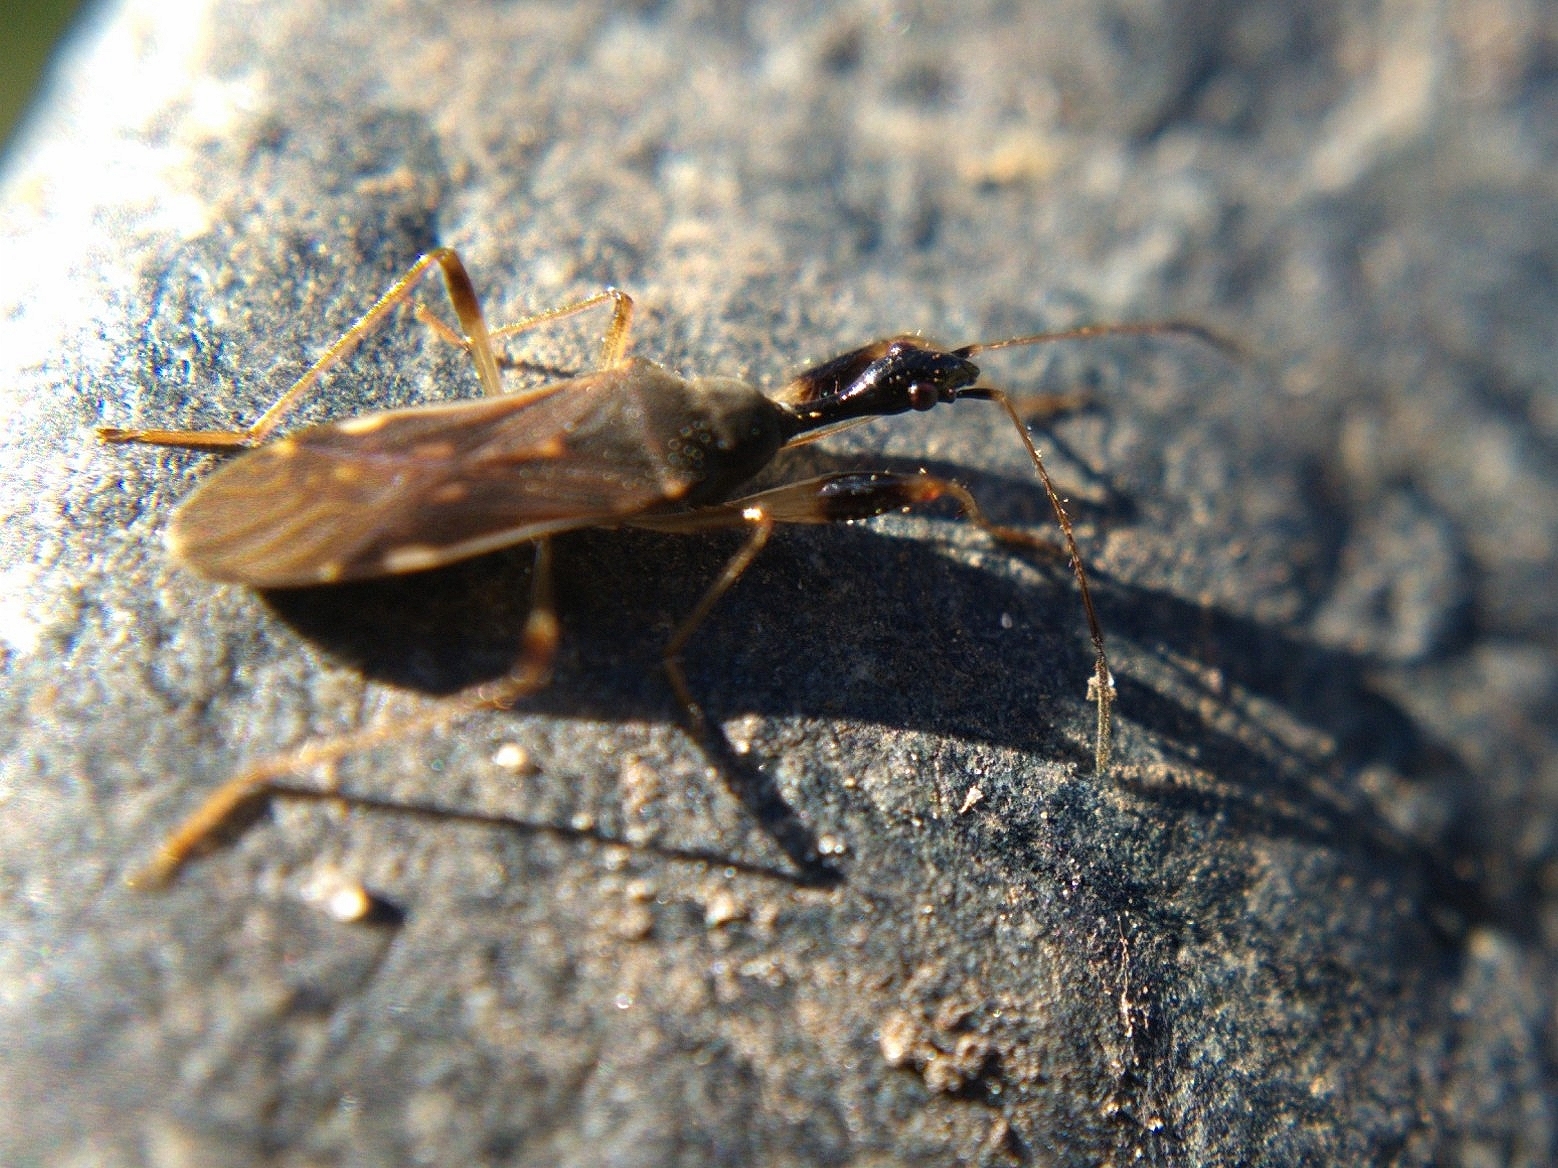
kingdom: Animalia
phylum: Arthropoda
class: Insecta
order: Hemiptera
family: Rhyparochromidae
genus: Myodocha
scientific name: Myodocha serripes
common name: Long-necked seed bug
